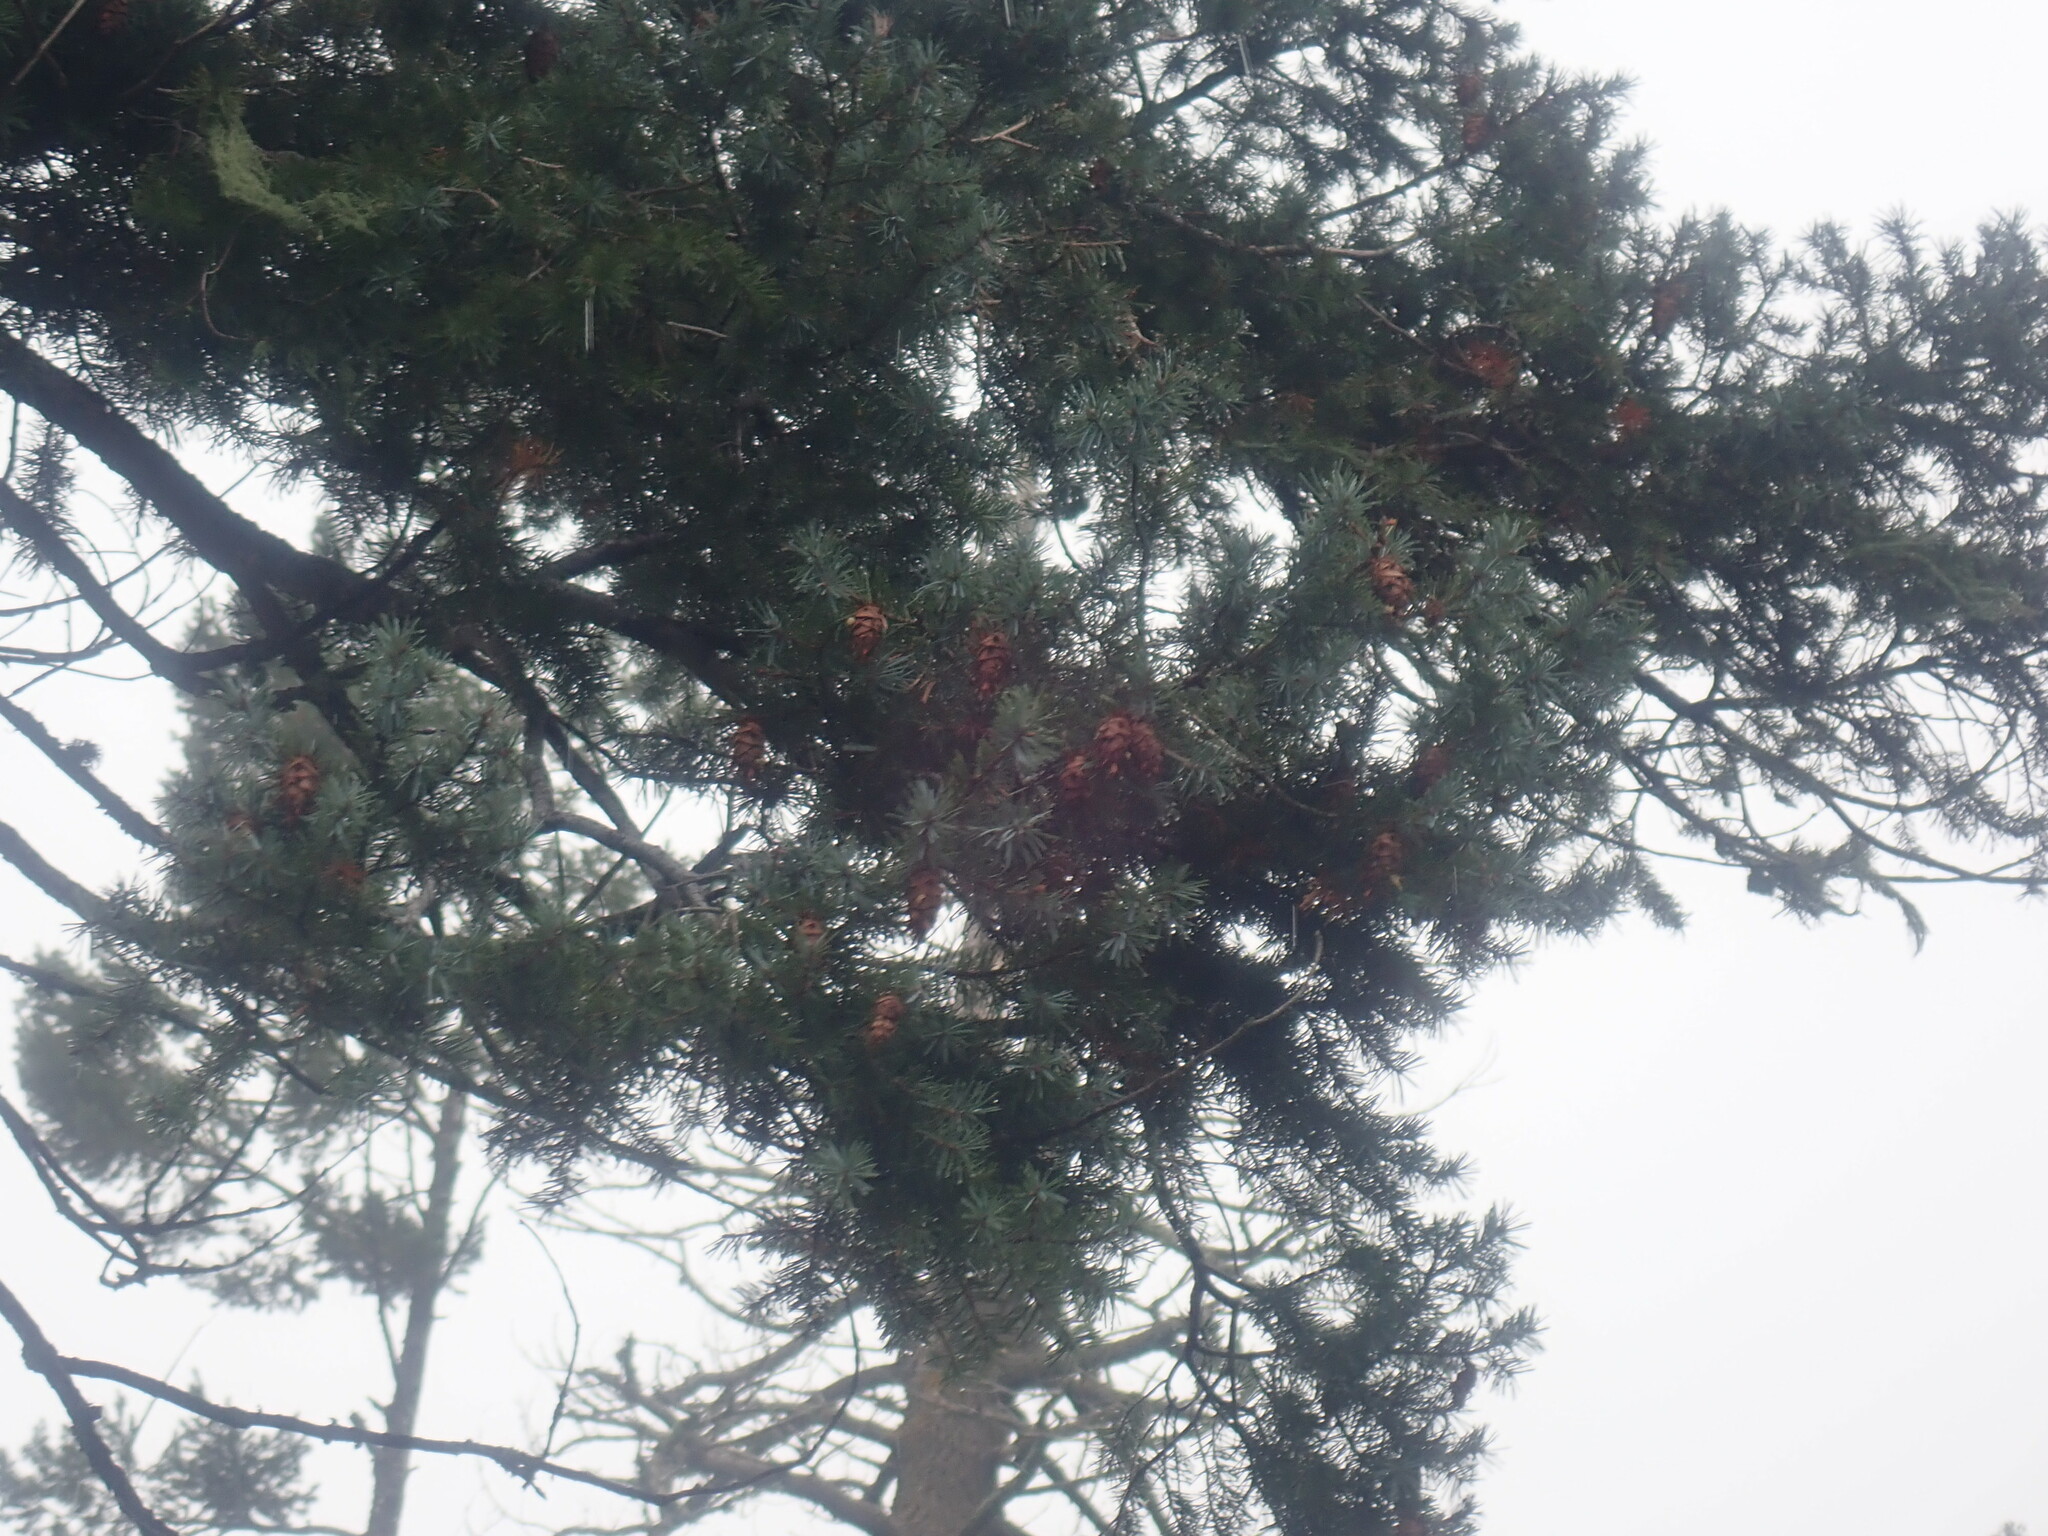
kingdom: Plantae
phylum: Tracheophyta
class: Pinopsida
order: Pinales
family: Pinaceae
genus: Pseudotsuga
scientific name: Pseudotsuga menziesii
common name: Douglas fir
